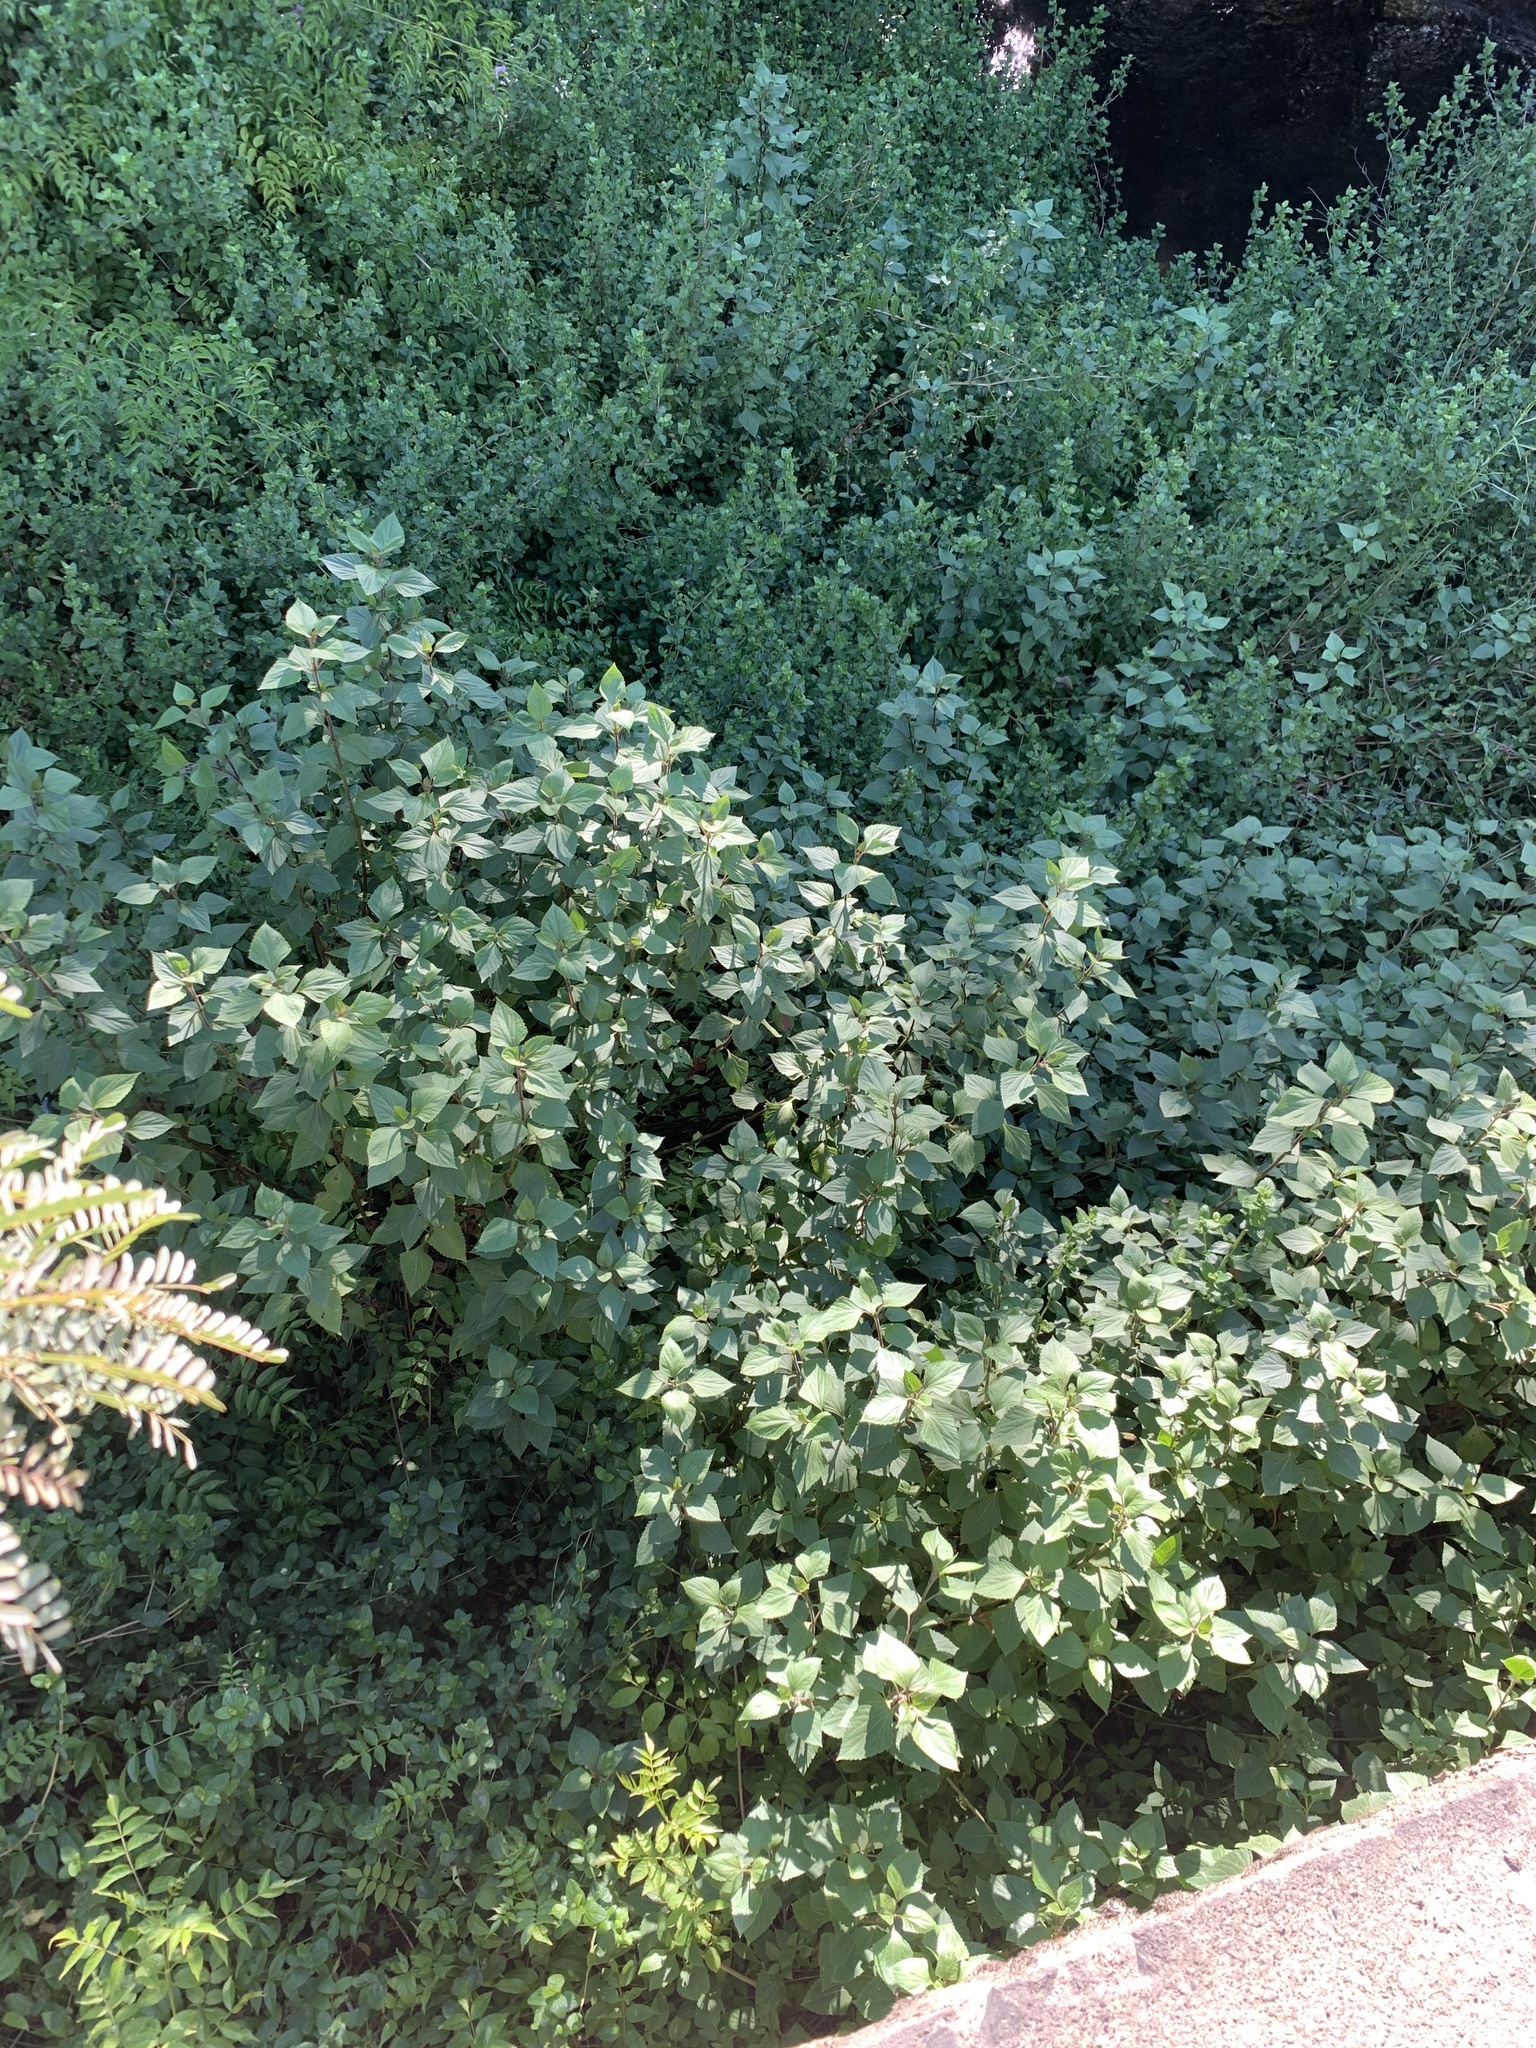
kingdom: Plantae
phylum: Tracheophyta
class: Magnoliopsida
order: Asterales
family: Asteraceae
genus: Ageratina
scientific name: Ageratina adenophora
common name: Sticky snakeroot
